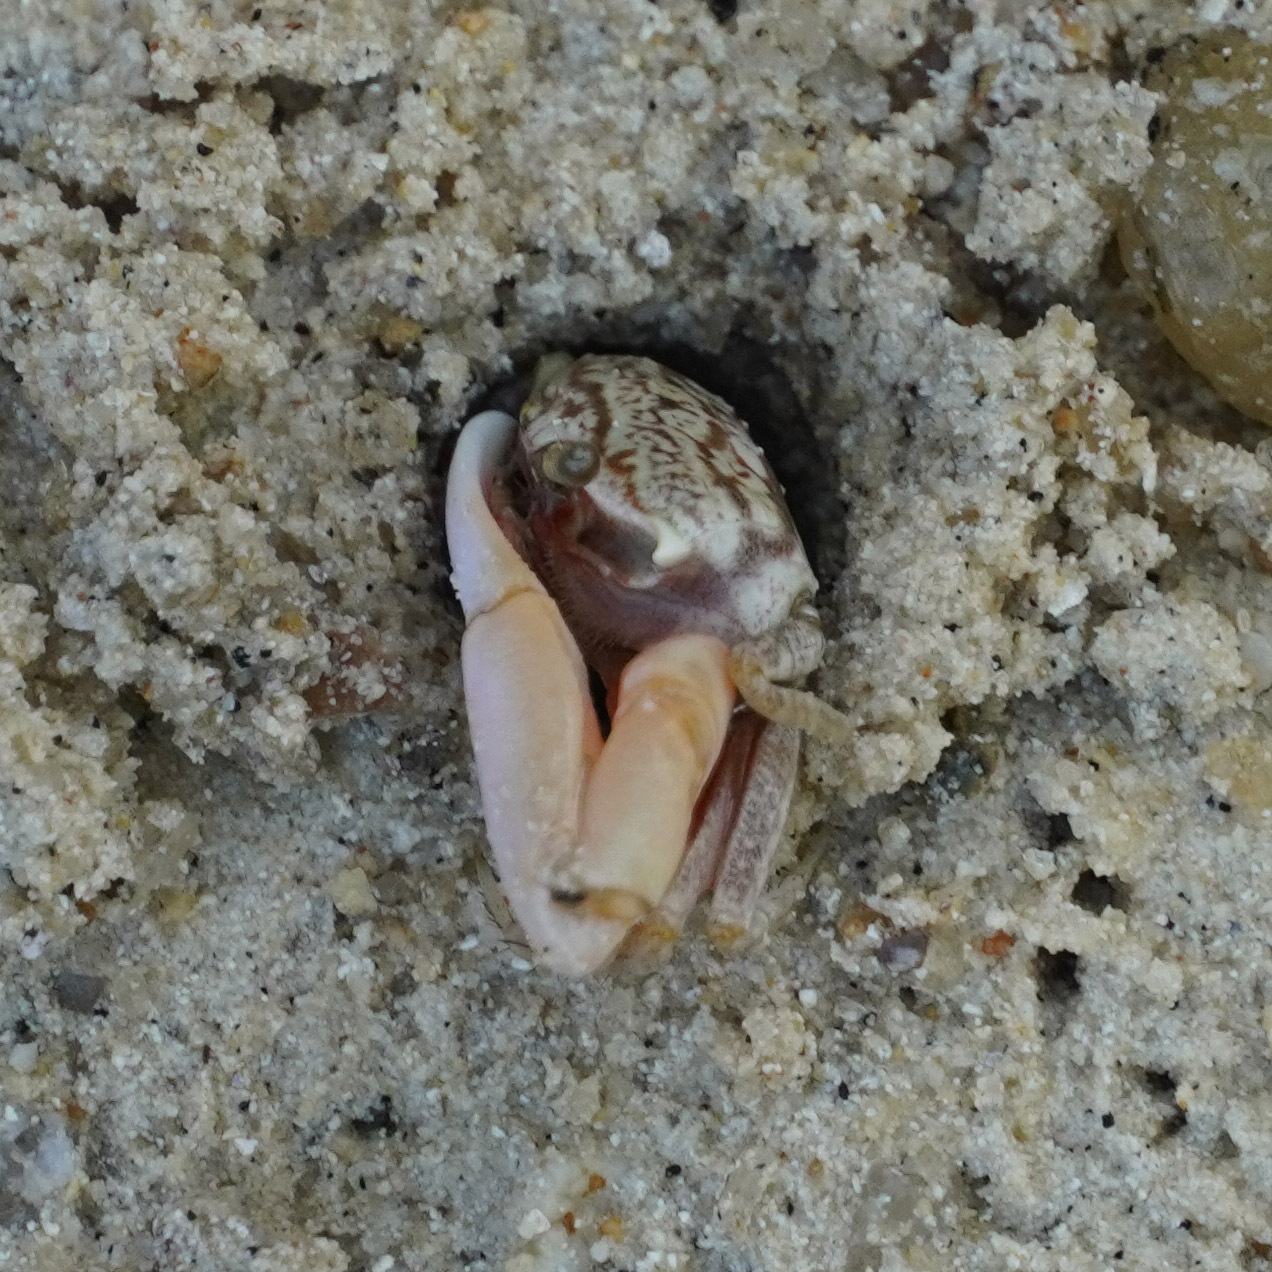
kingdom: Animalia
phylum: Arthropoda
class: Malacostraca
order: Decapoda
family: Ocypodidae
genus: Austruca
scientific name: Austruca annulipes
